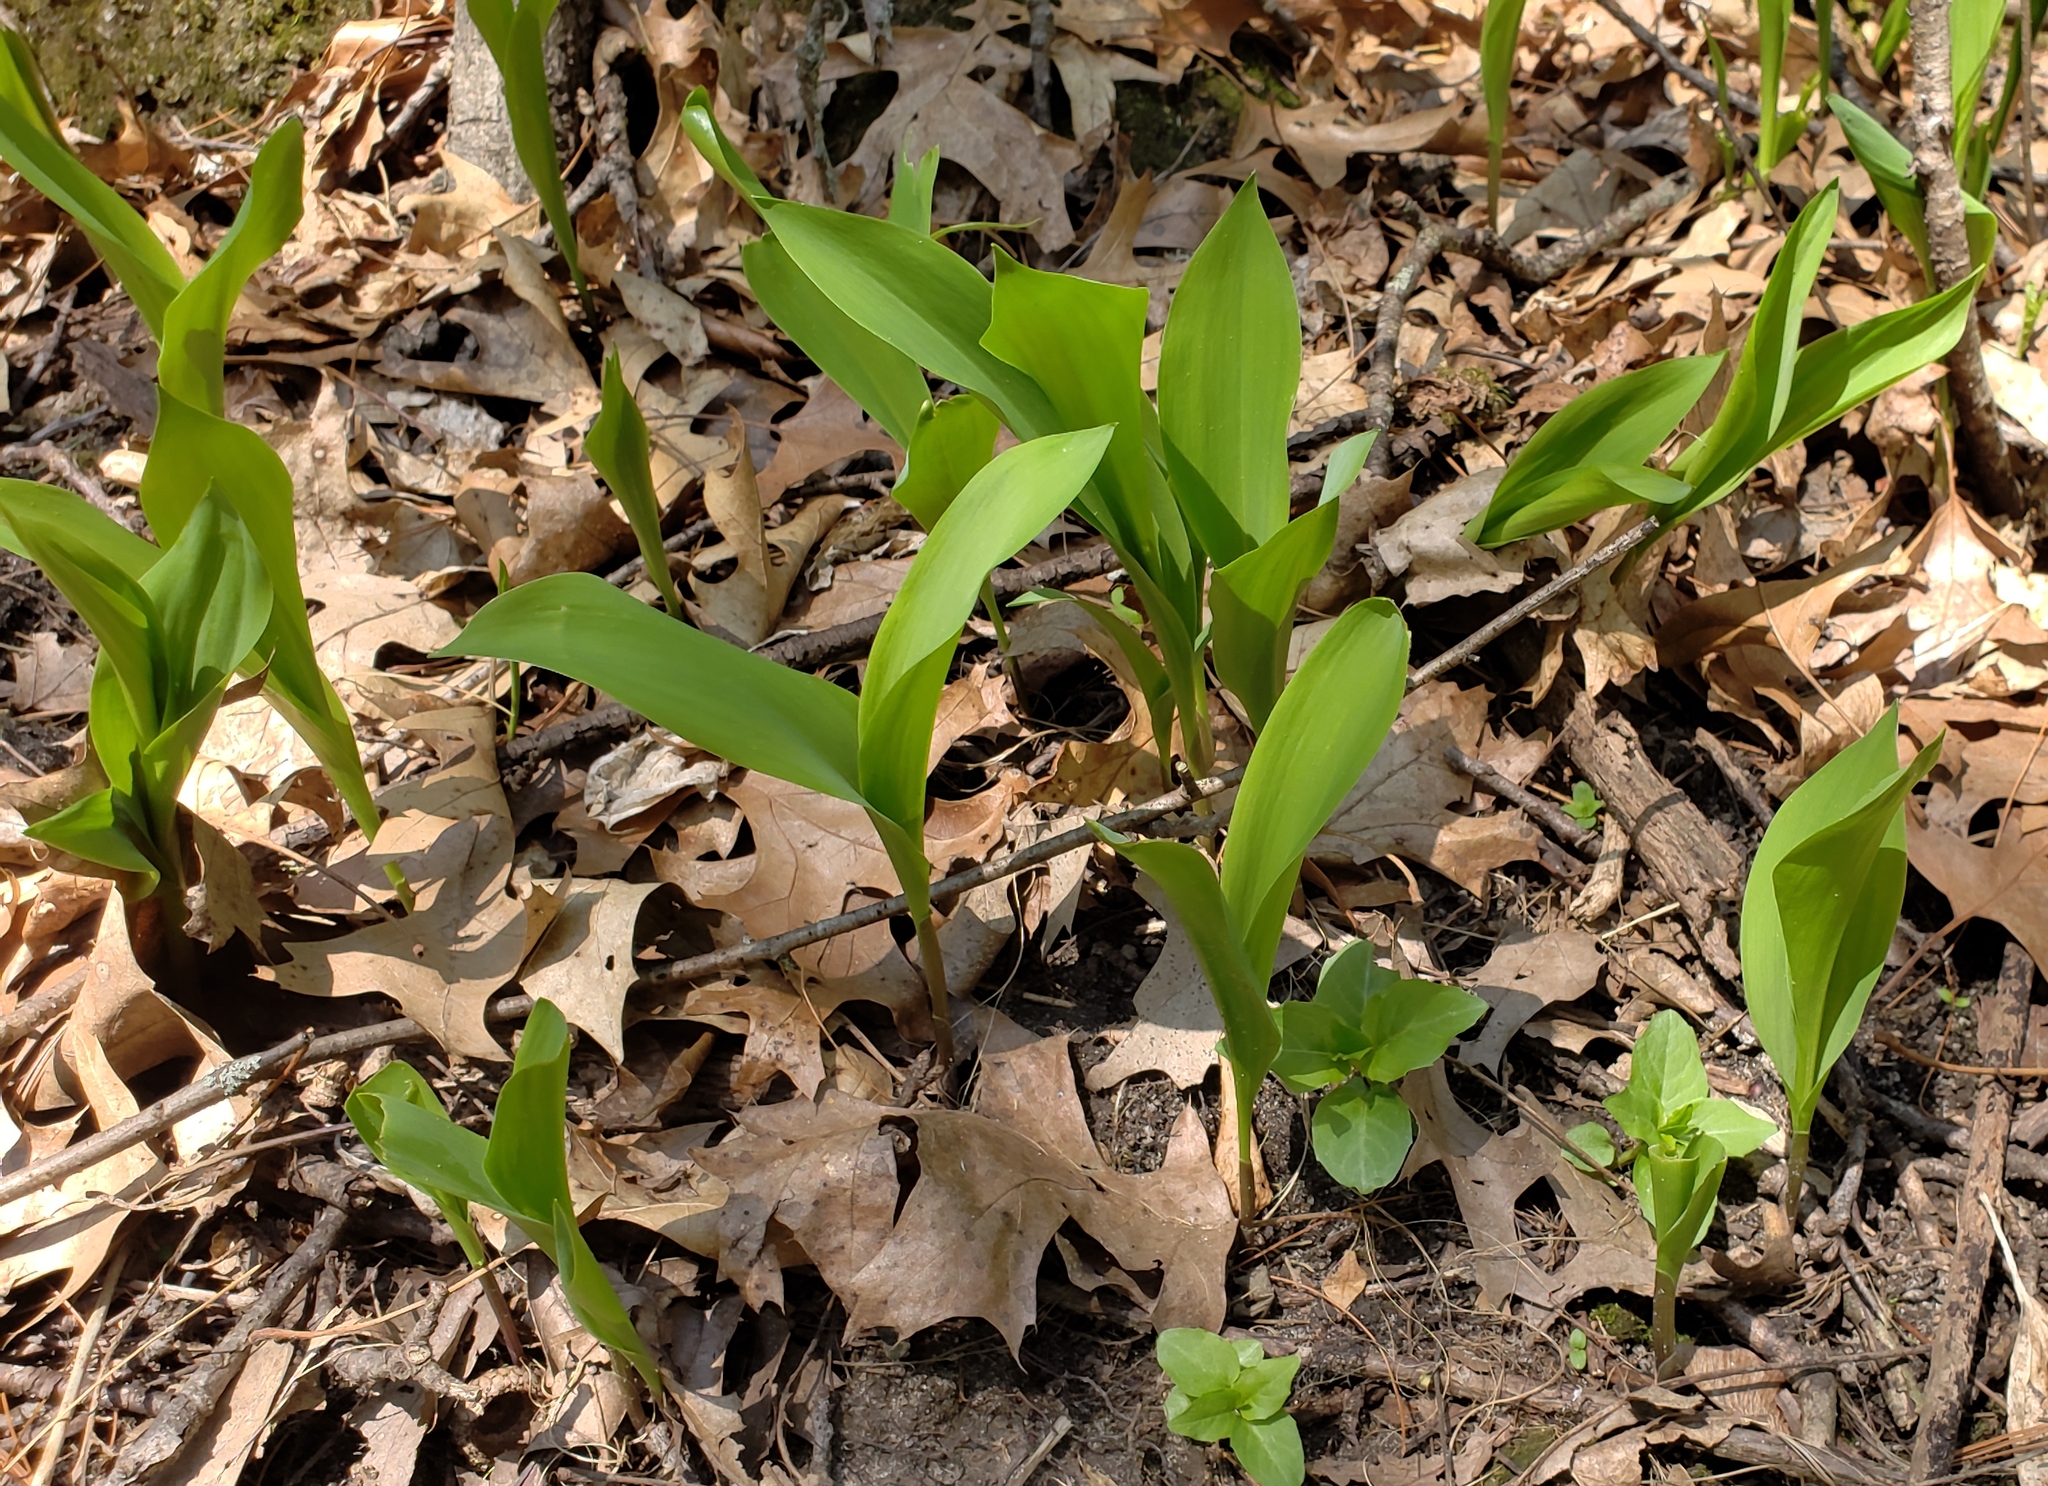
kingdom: Plantae
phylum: Tracheophyta
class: Liliopsida
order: Asparagales
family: Asparagaceae
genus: Convallaria
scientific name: Convallaria majalis
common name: Lily-of-the-valley
